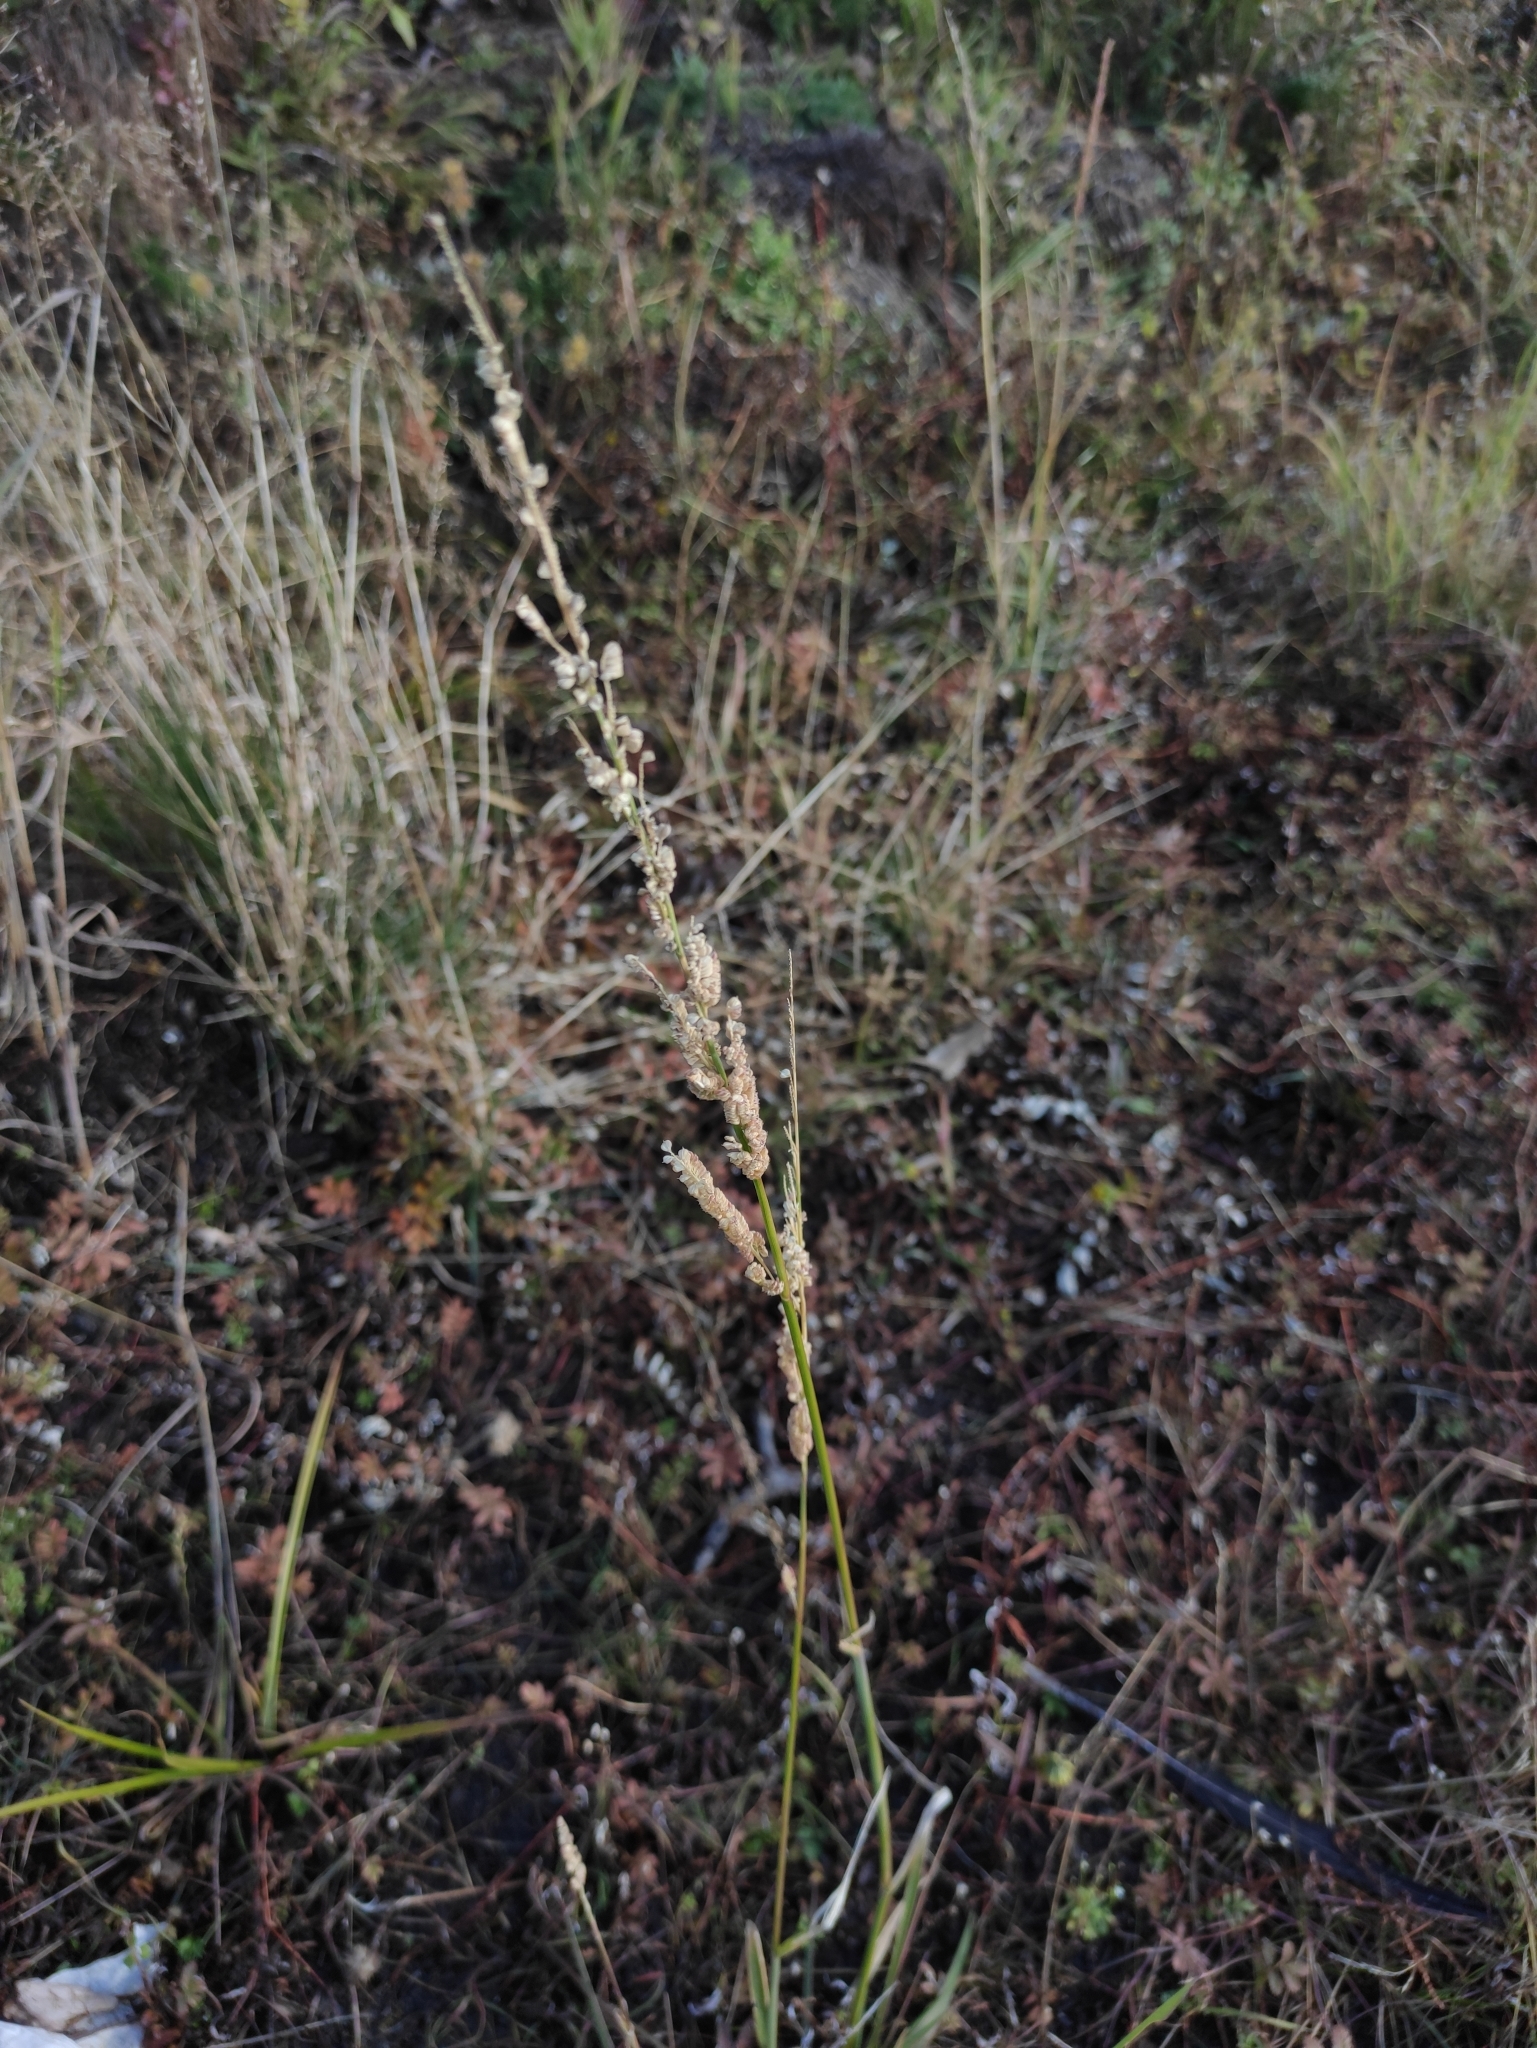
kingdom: Plantae
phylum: Tracheophyta
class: Liliopsida
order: Poales
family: Poaceae
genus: Beckmannia
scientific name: Beckmannia syzigachne
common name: American slough-grass
